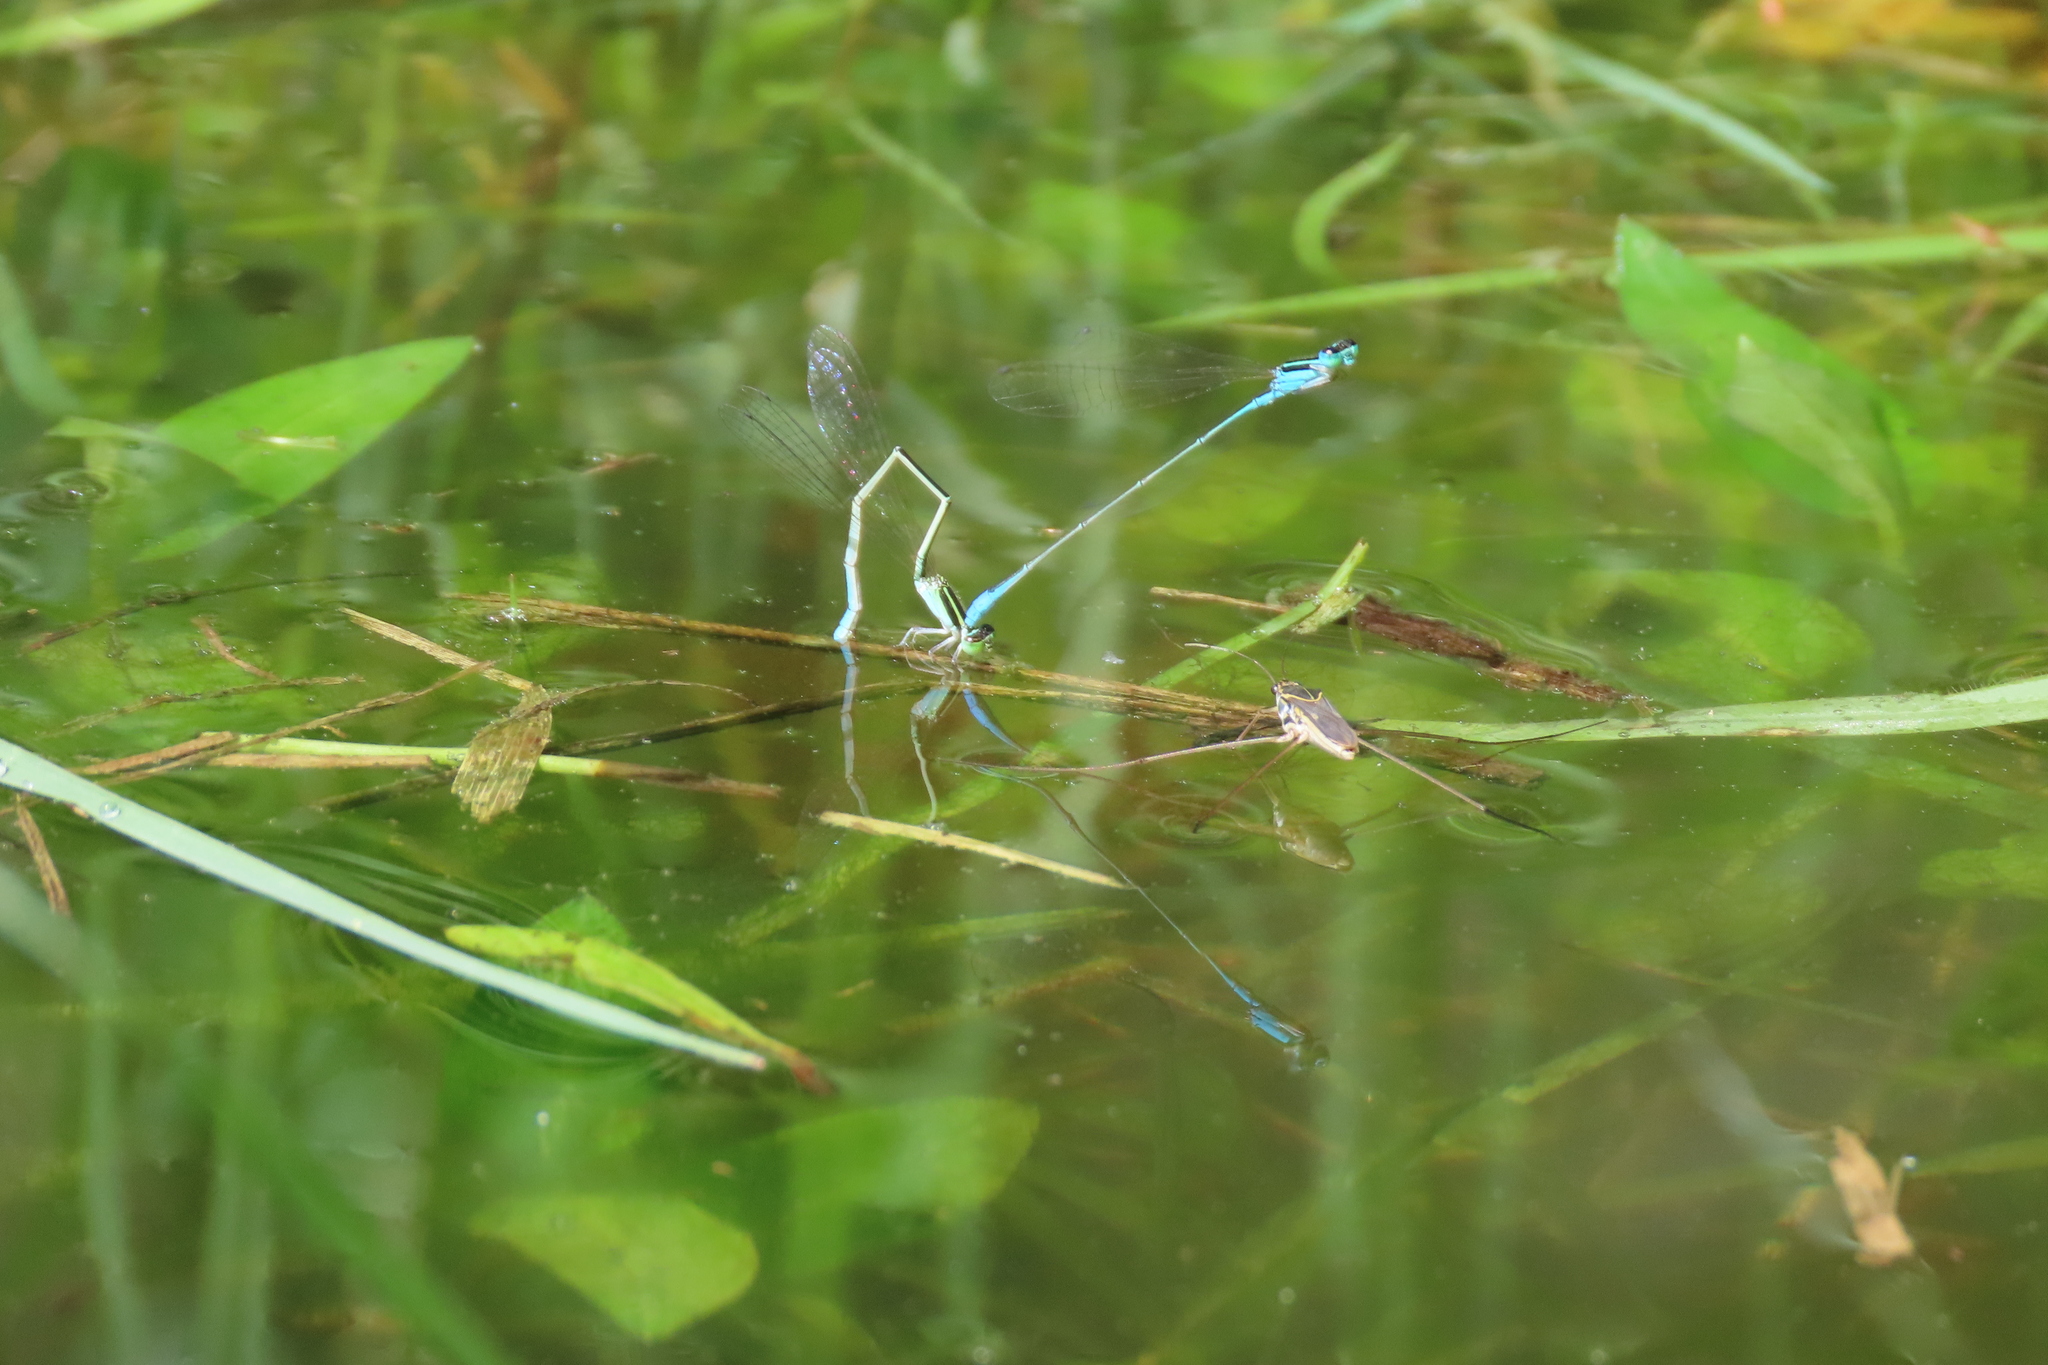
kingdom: Animalia
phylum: Arthropoda
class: Insecta
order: Odonata
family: Coenagrionidae
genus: Aciagrion
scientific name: Aciagrion occidentale
